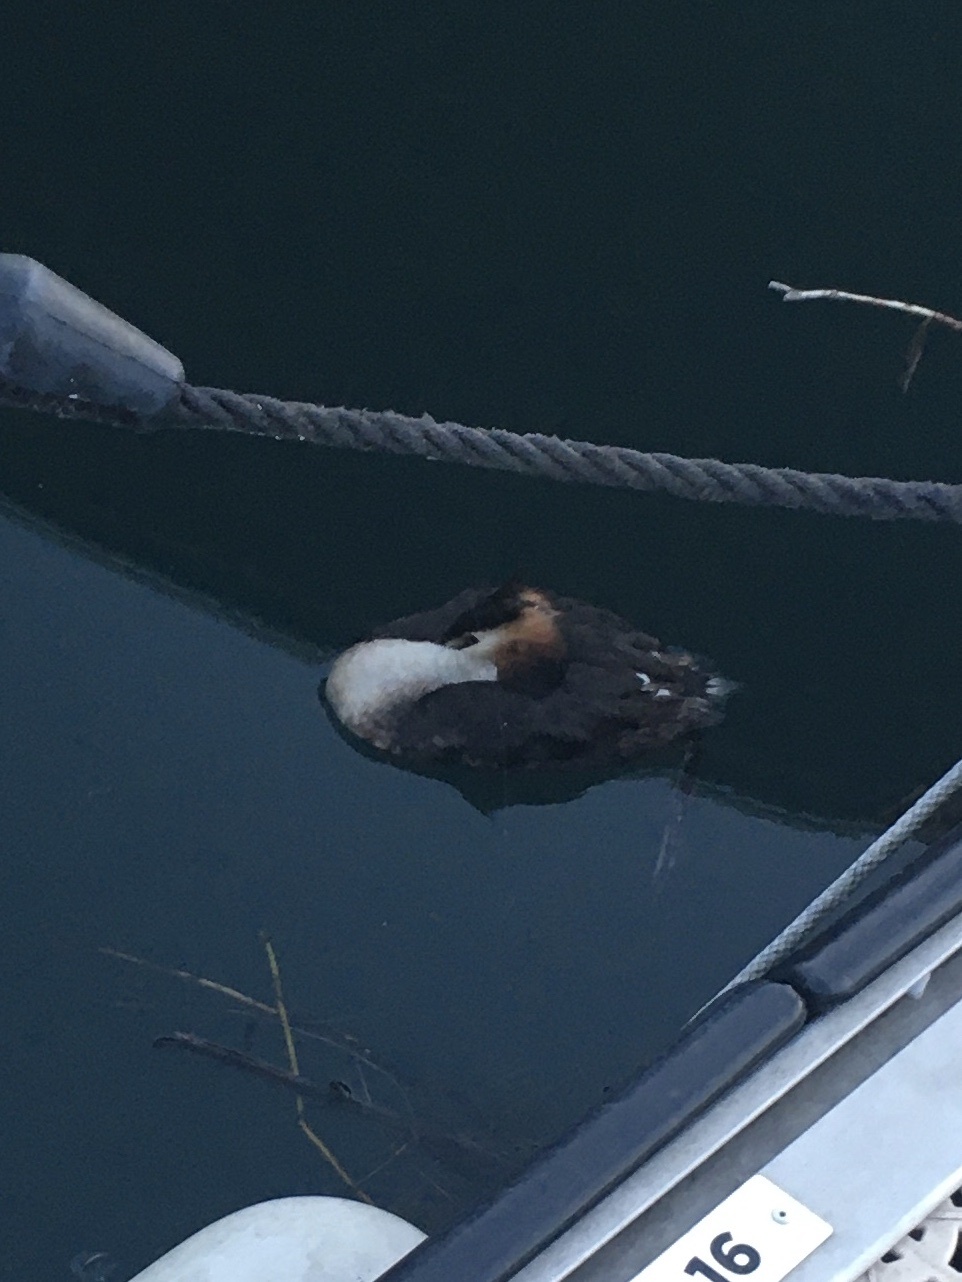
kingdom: Animalia
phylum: Chordata
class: Aves
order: Podicipediformes
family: Podicipedidae
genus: Podiceps
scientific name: Podiceps cristatus
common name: Great crested grebe
